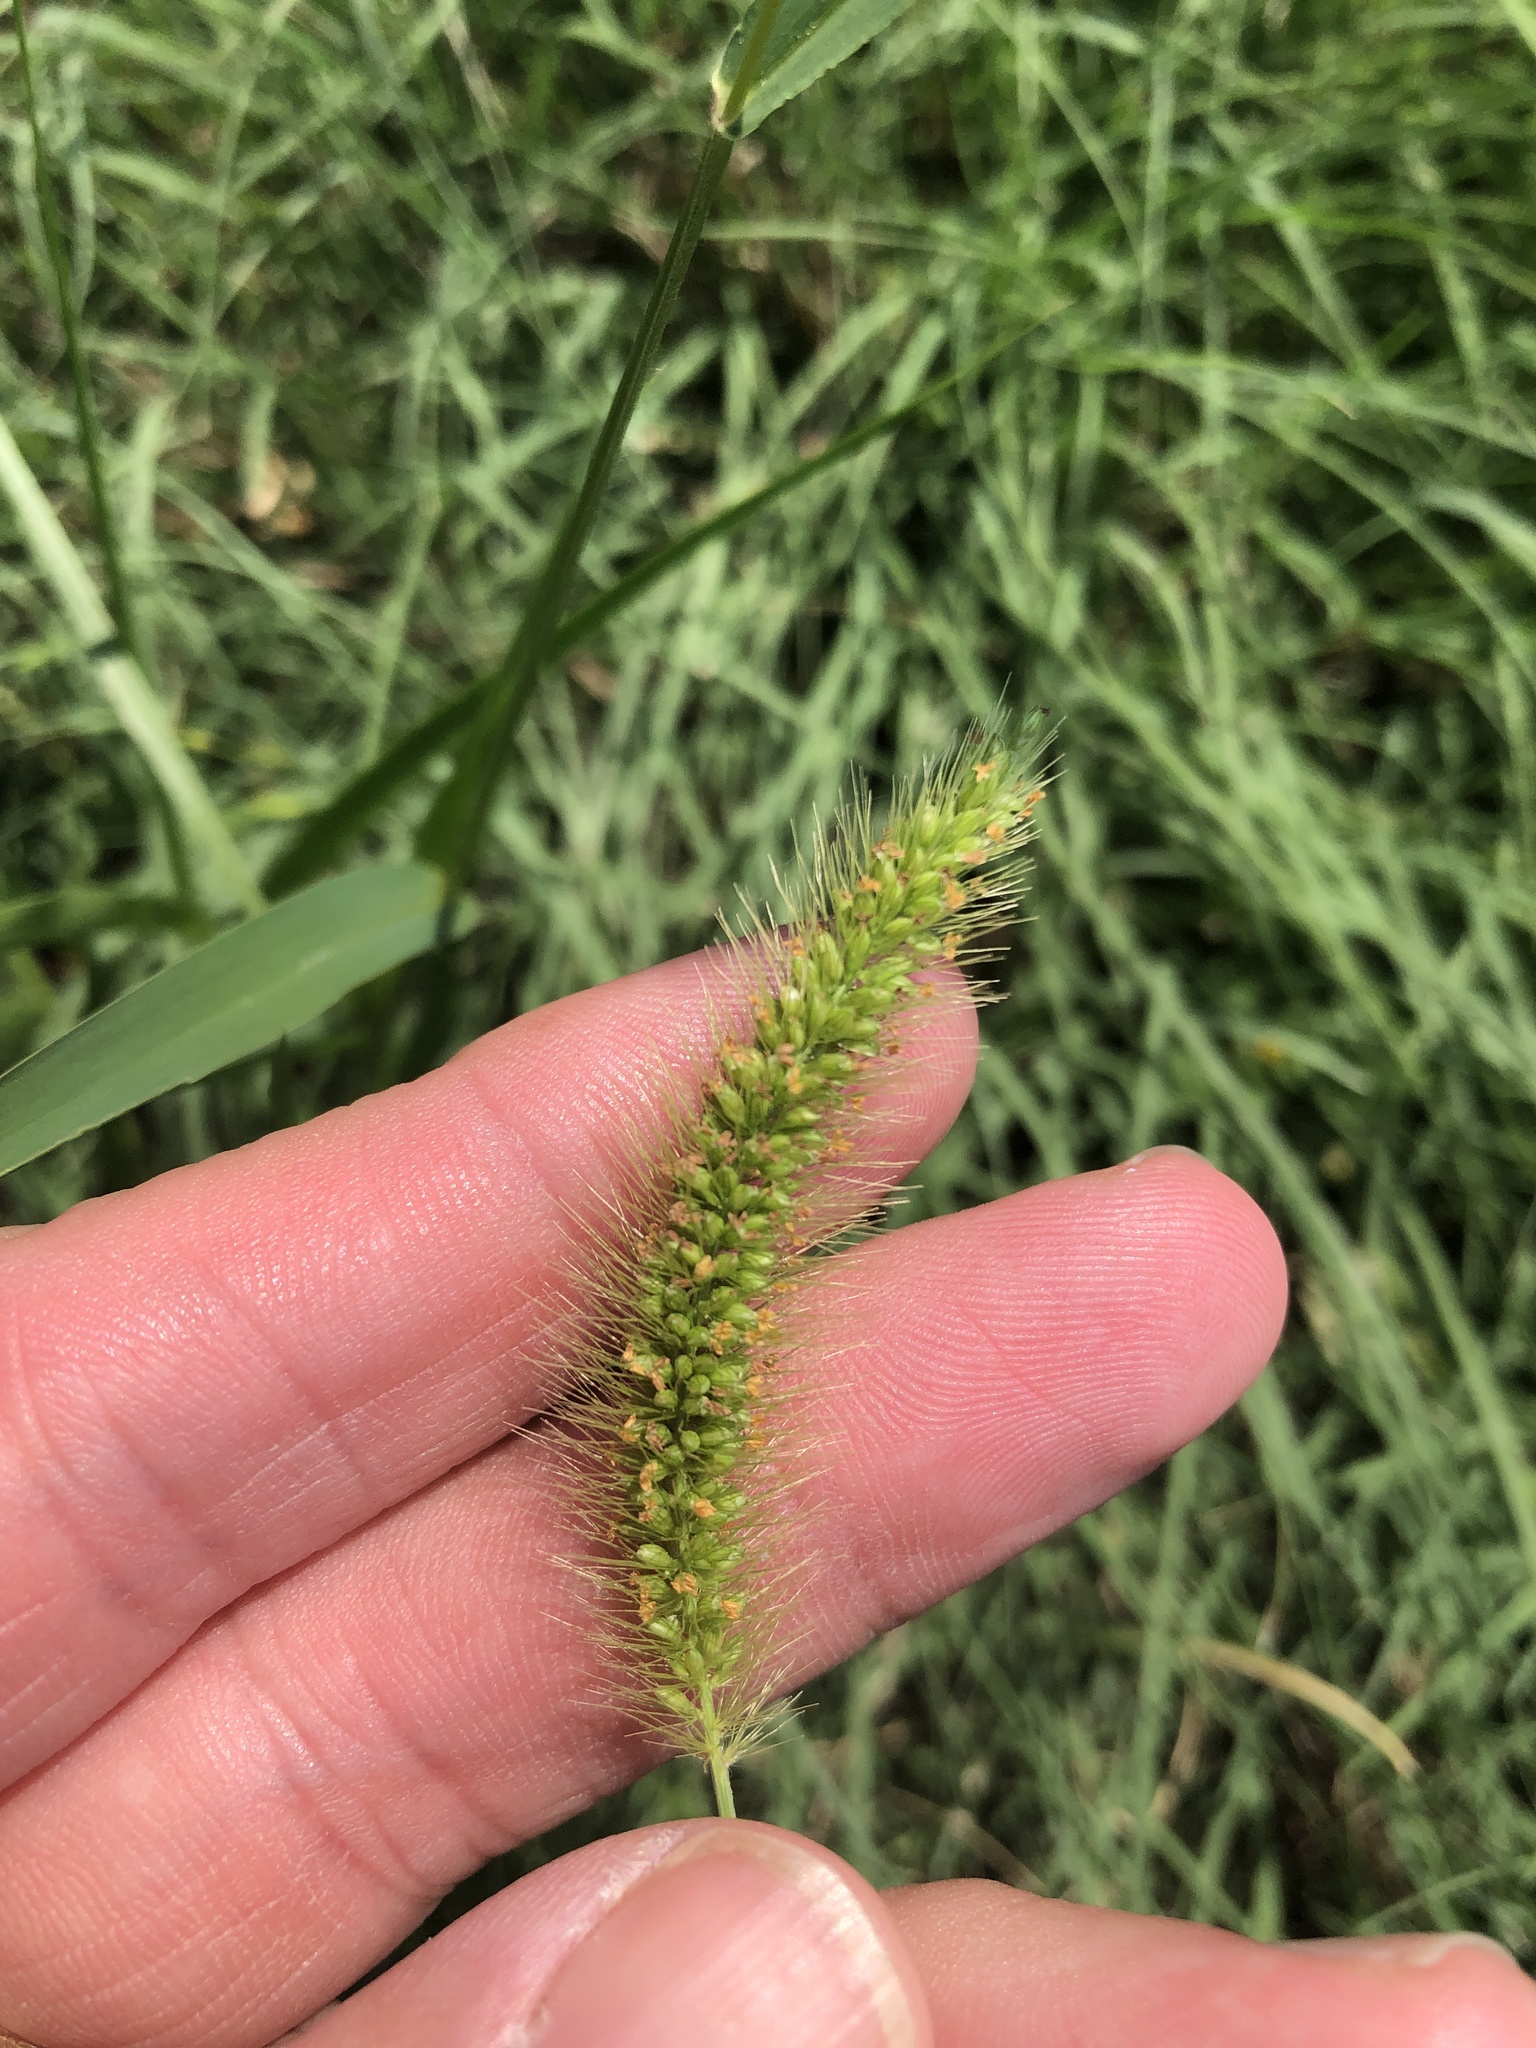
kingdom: Plantae
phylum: Tracheophyta
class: Liliopsida
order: Poales
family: Poaceae
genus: Setaria
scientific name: Setaria viridis
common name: Green bristlegrass
